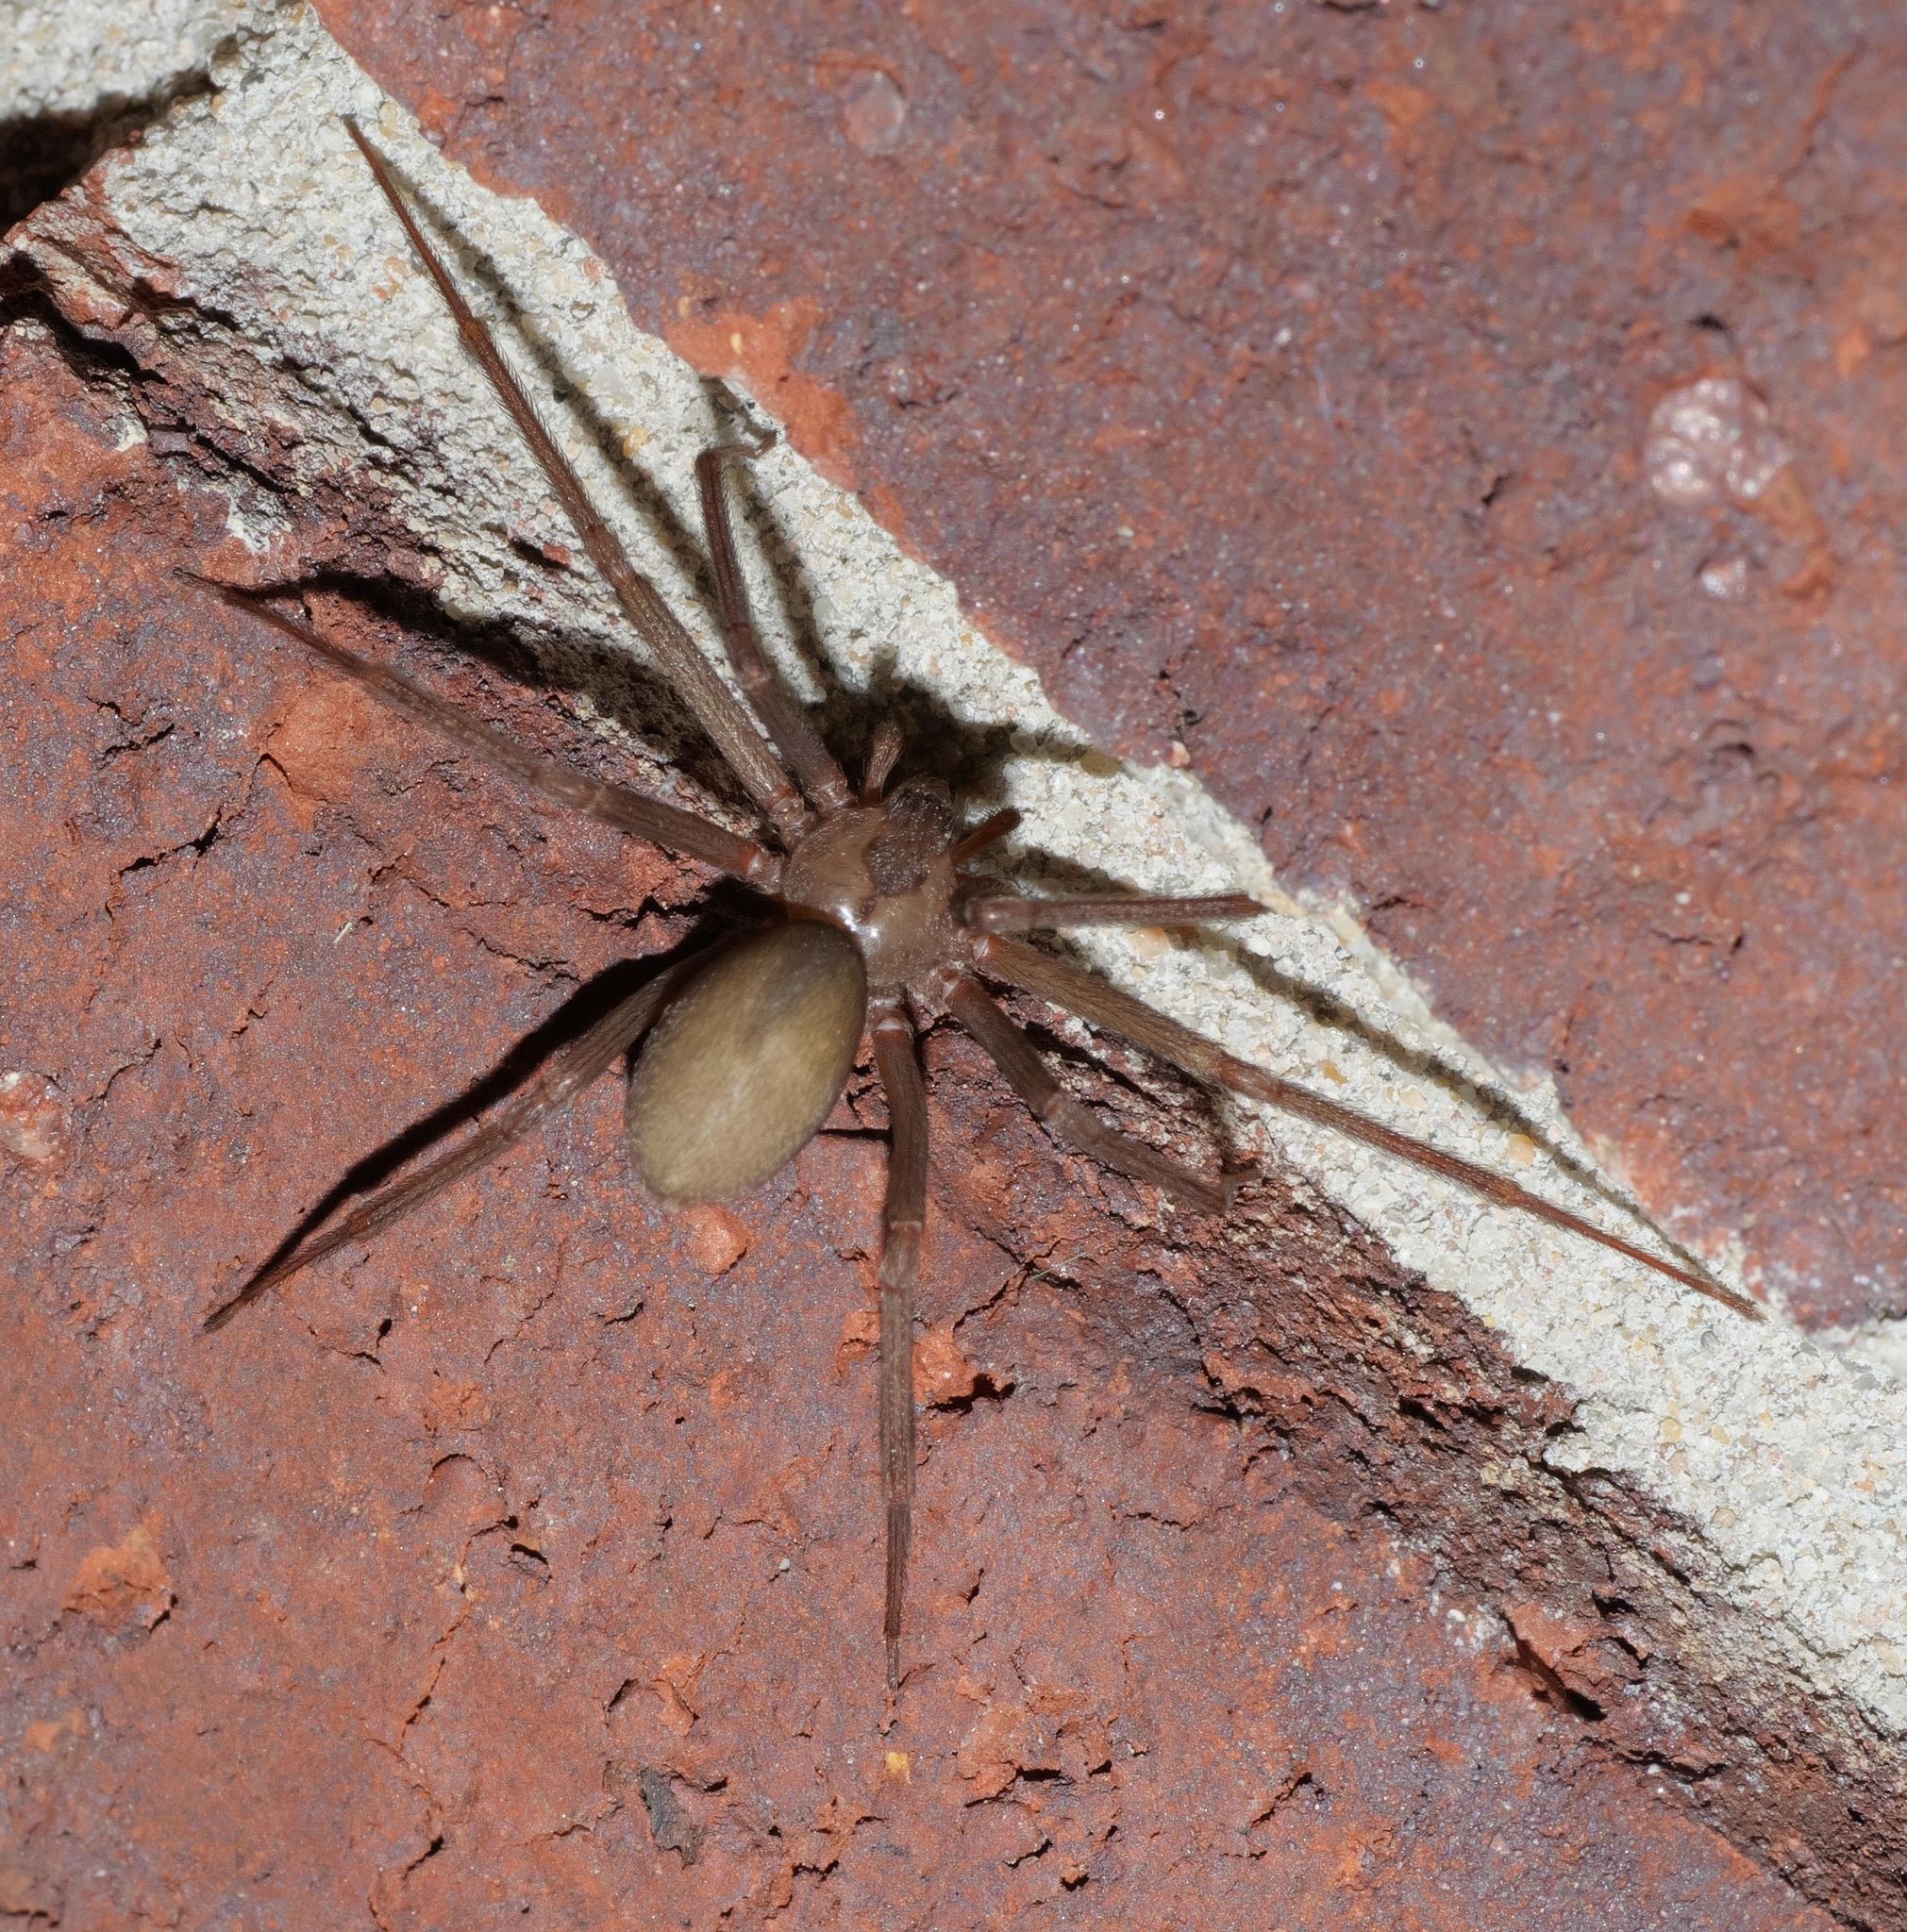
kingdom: Animalia
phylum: Arthropoda
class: Arachnida
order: Araneae
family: Sicariidae
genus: Loxosceles
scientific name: Loxosceles reclusa
